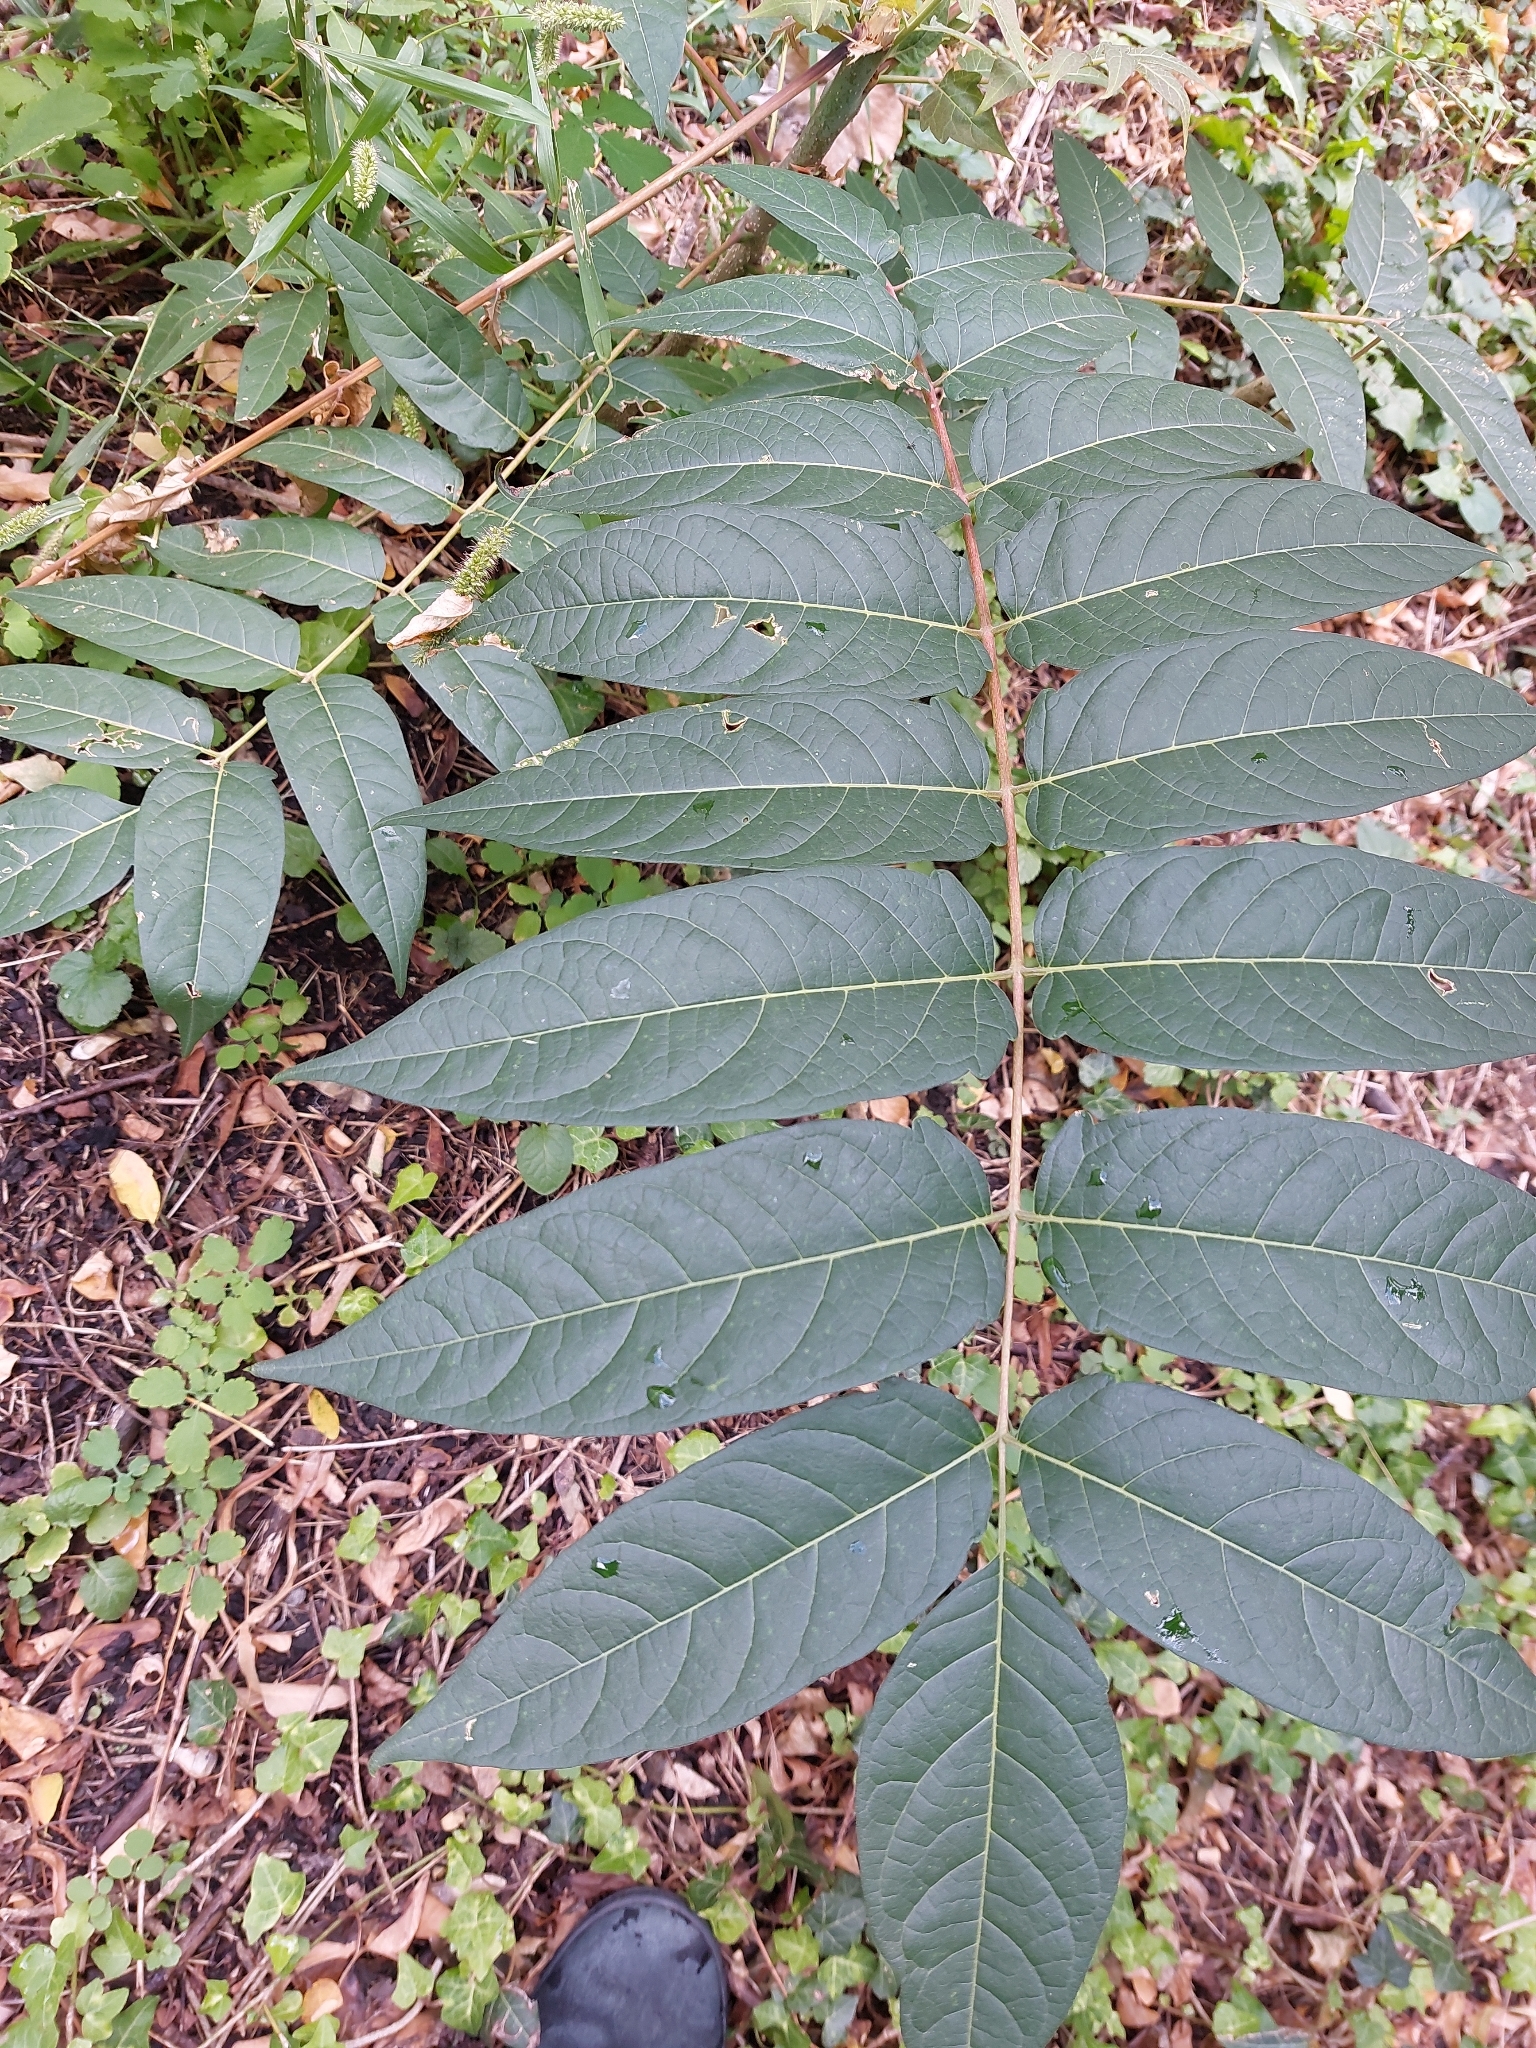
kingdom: Plantae
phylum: Tracheophyta
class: Magnoliopsida
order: Sapindales
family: Simaroubaceae
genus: Ailanthus
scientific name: Ailanthus altissima
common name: Tree-of-heaven
